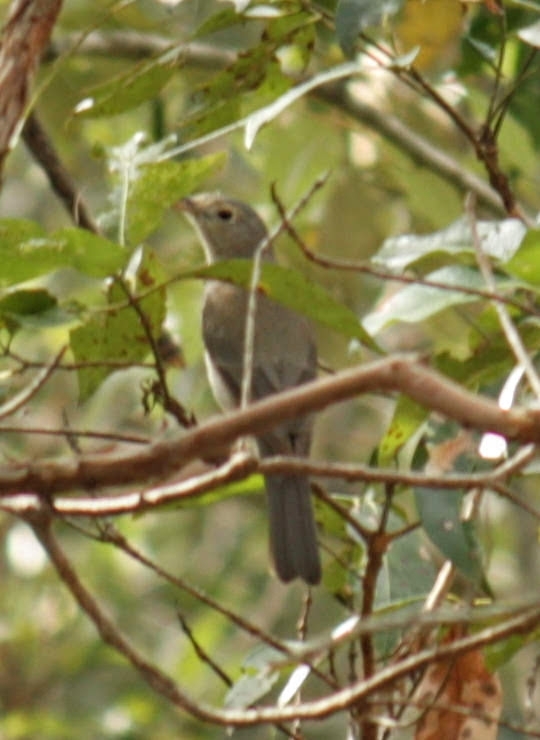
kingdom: Animalia
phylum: Chordata
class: Aves
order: Passeriformes
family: Pachycephalidae
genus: Colluricincla
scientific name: Colluricincla harmonica
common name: Grey shrikethrush
